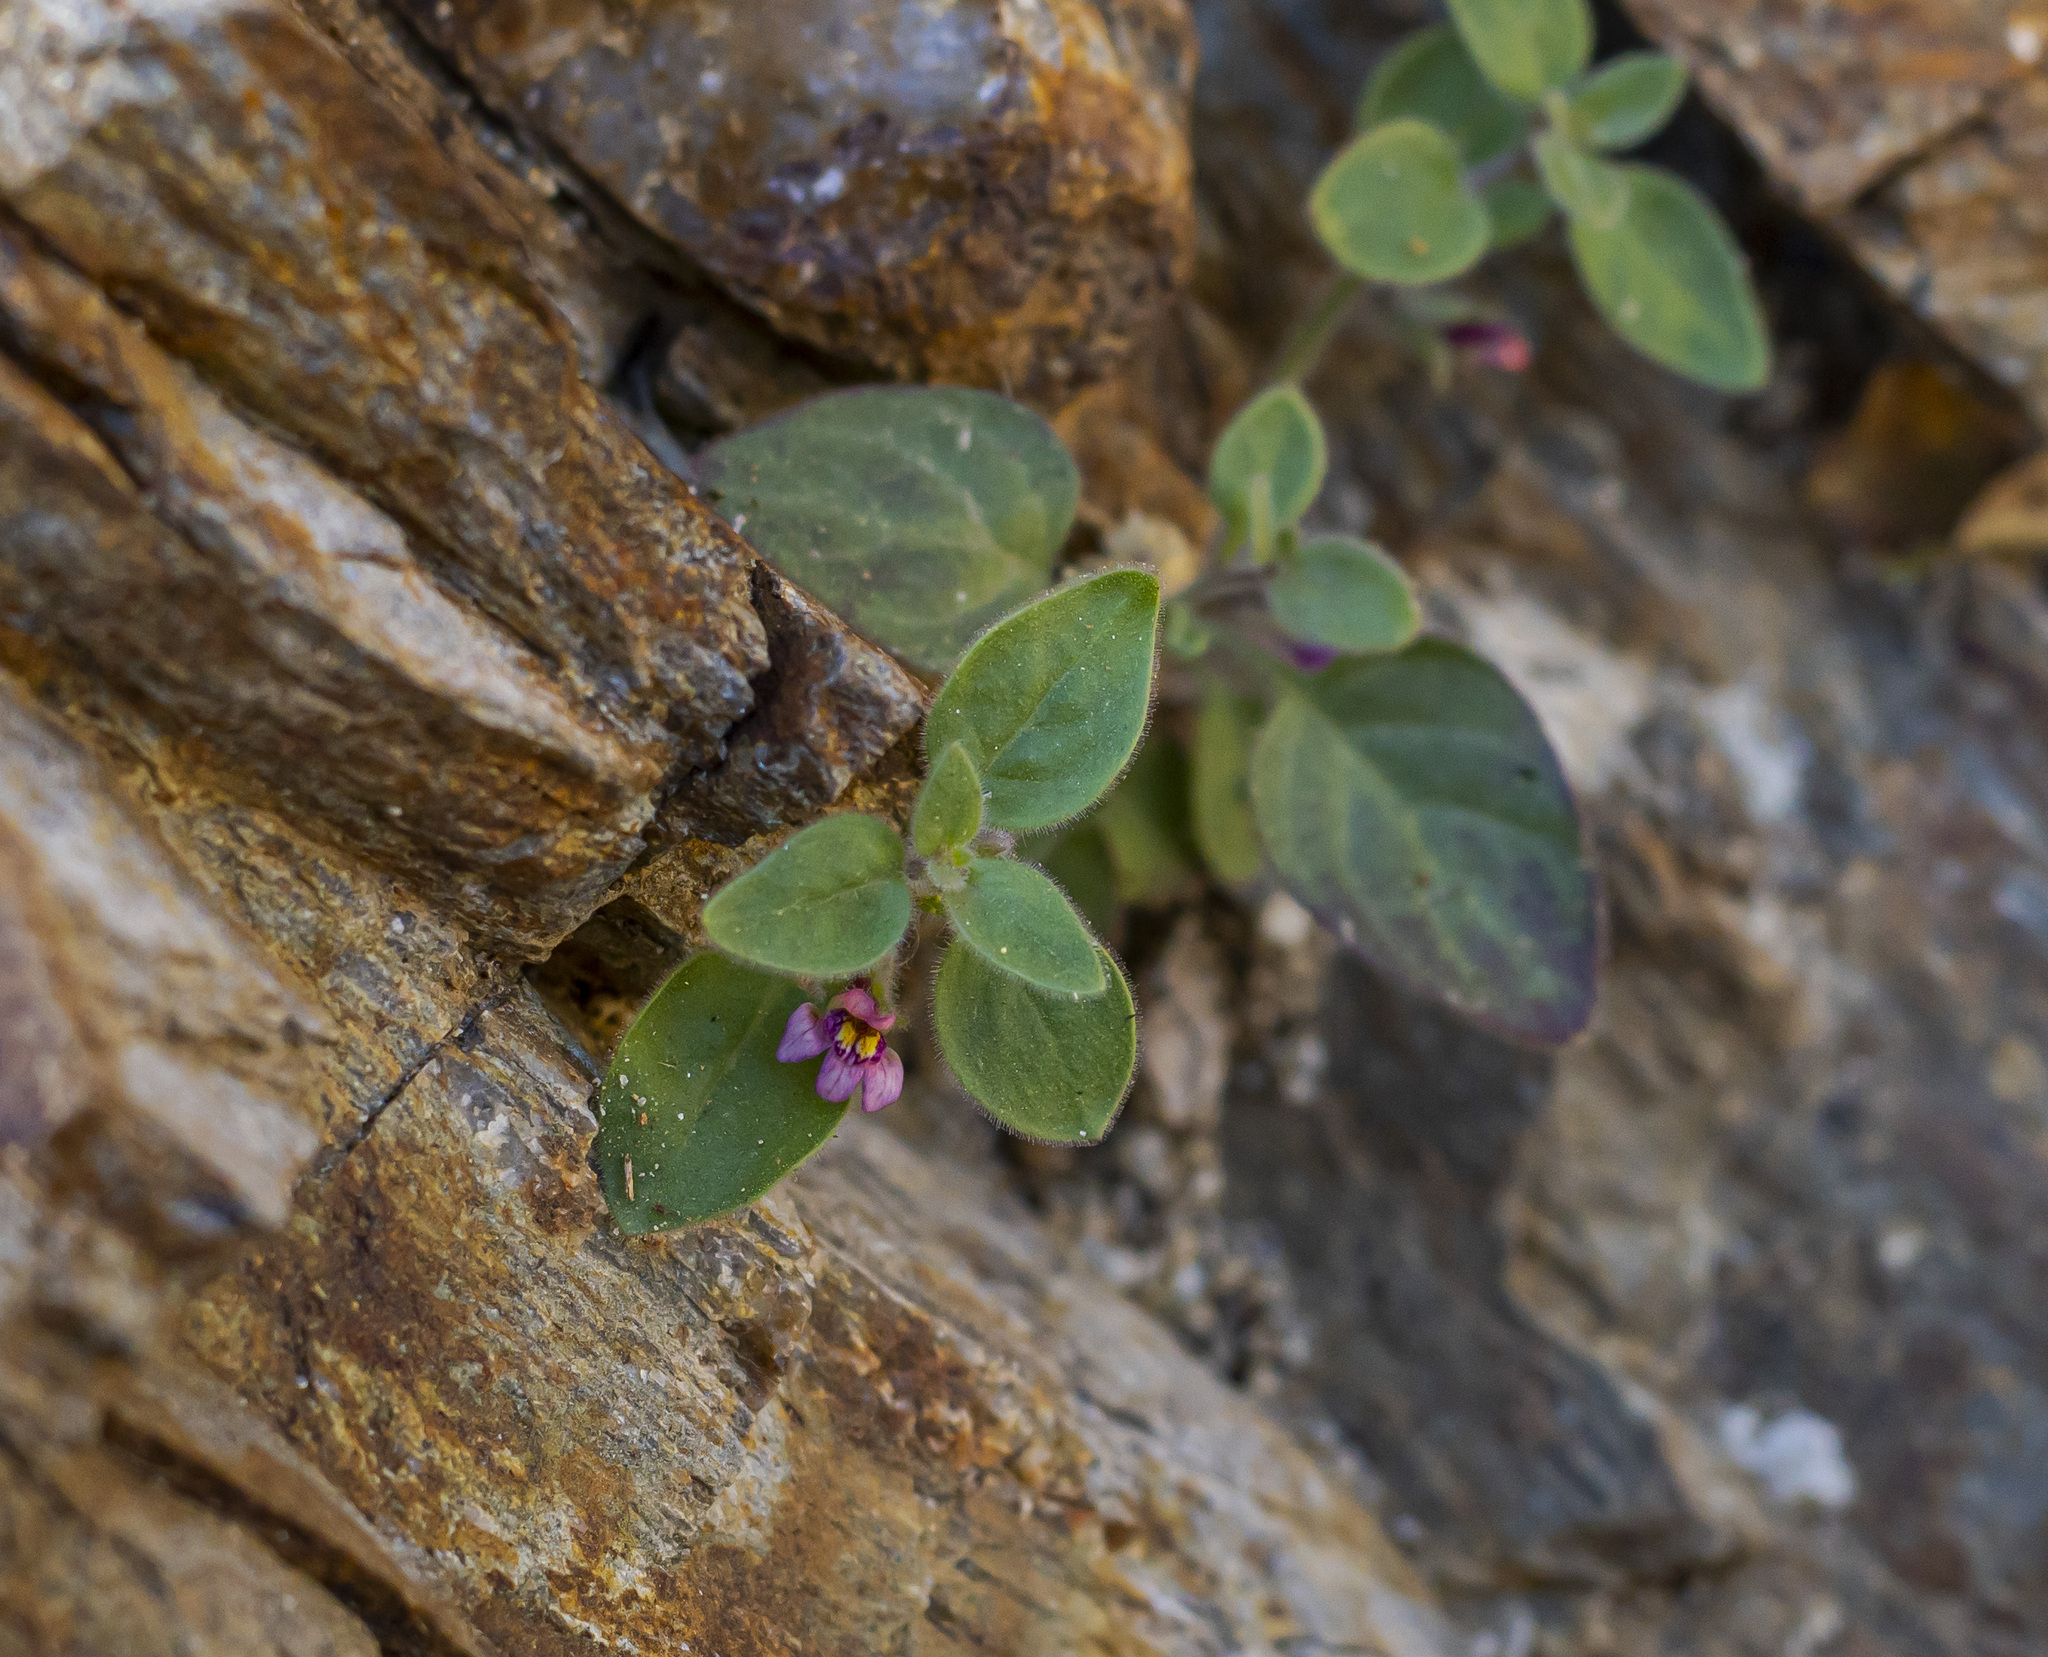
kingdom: Plantae
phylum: Tracheophyta
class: Magnoliopsida
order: Lamiales
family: Plantaginaceae
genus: Pseudorontium
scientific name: Pseudorontium cyathiferum
